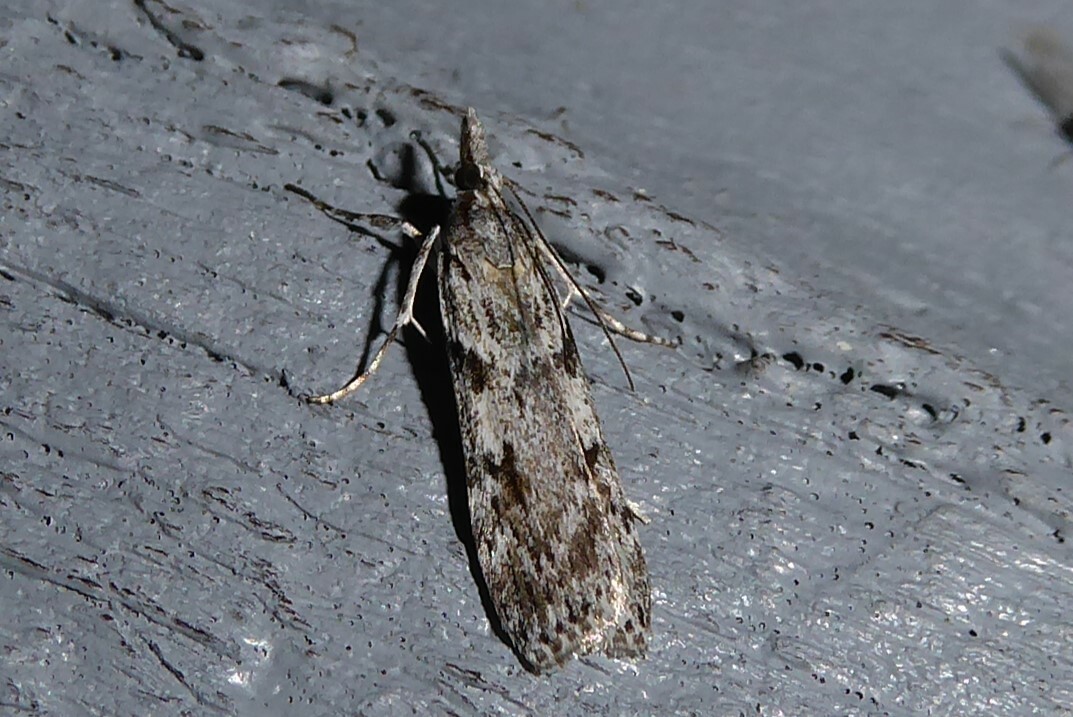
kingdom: Animalia
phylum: Arthropoda
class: Insecta
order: Lepidoptera
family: Crambidae
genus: Scoparia
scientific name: Scoparia halopis
